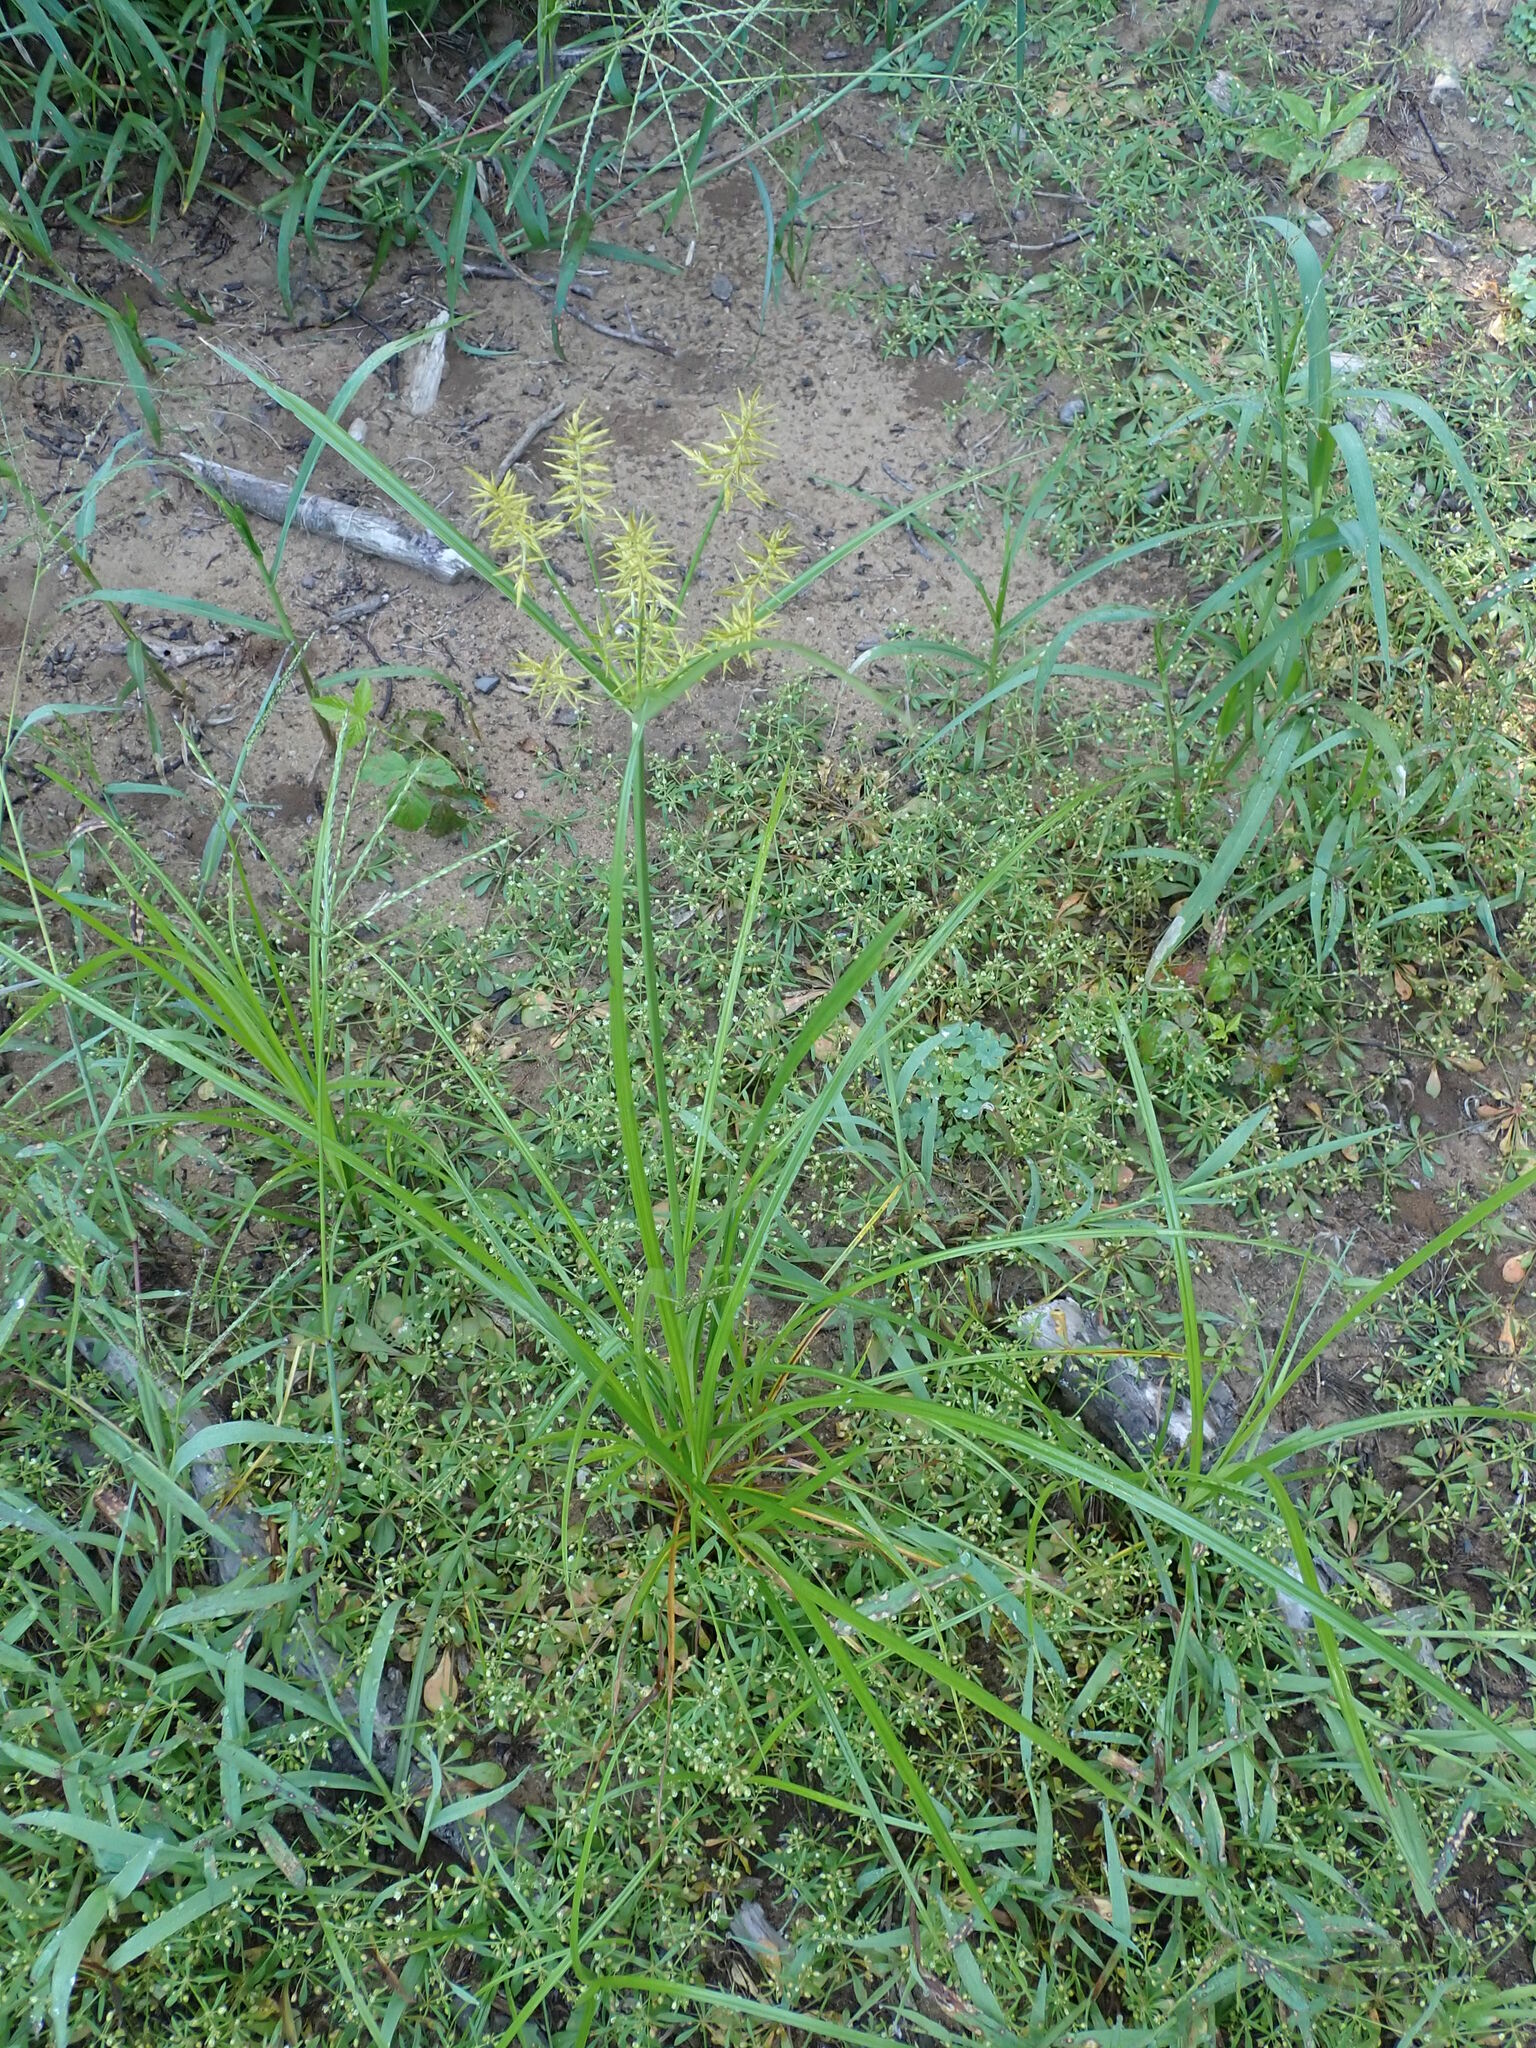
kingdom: Plantae
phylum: Tracheophyta
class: Liliopsida
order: Poales
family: Cyperaceae
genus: Cyperus
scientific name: Cyperus esculentus
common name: Yellow nutsedge
